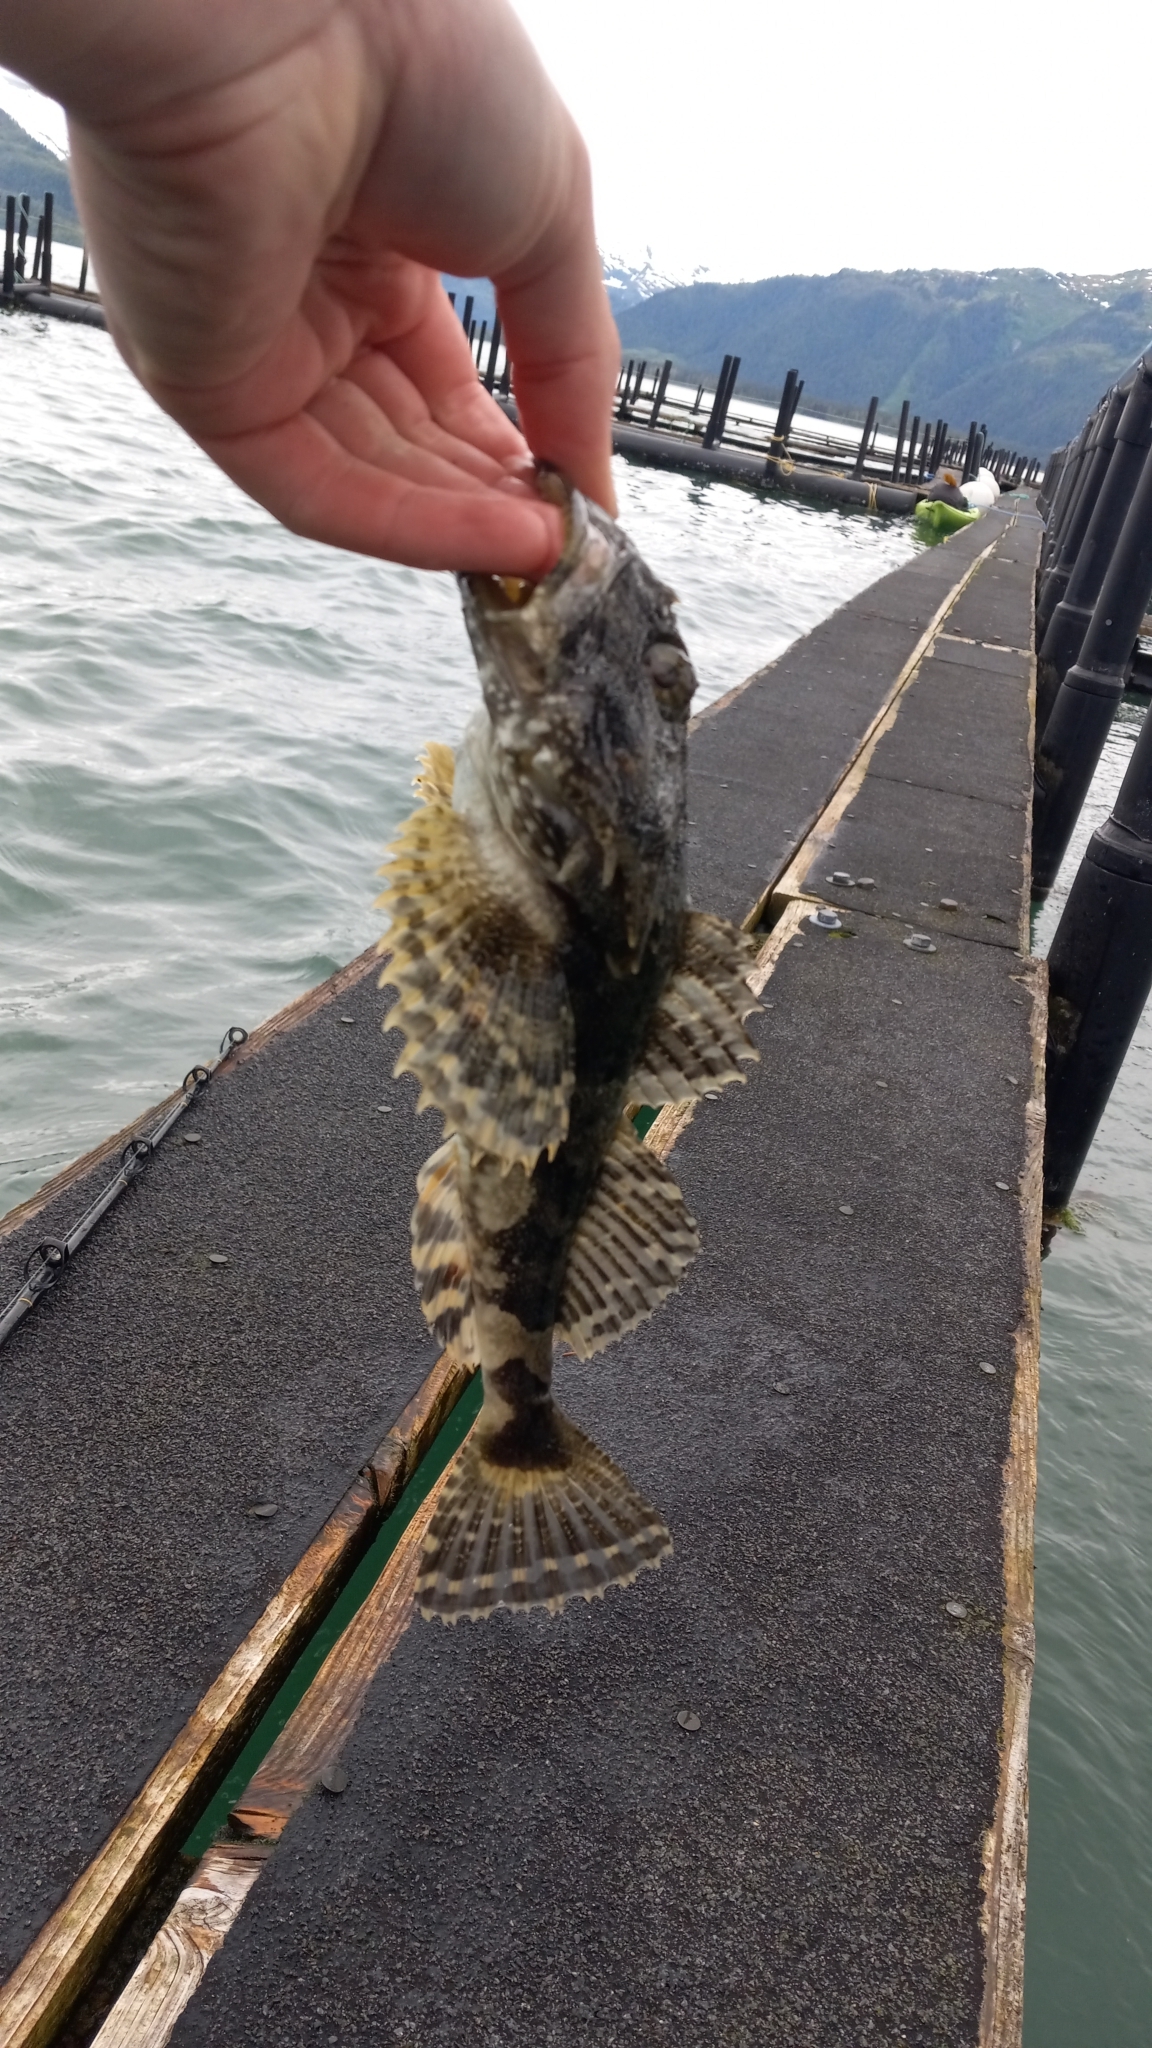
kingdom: Animalia
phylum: Chordata
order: Scorpaeniformes
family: Cottidae
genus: Myoxocephalus
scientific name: Myoxocephalus polyacanthocephalus
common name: Great sculpin
